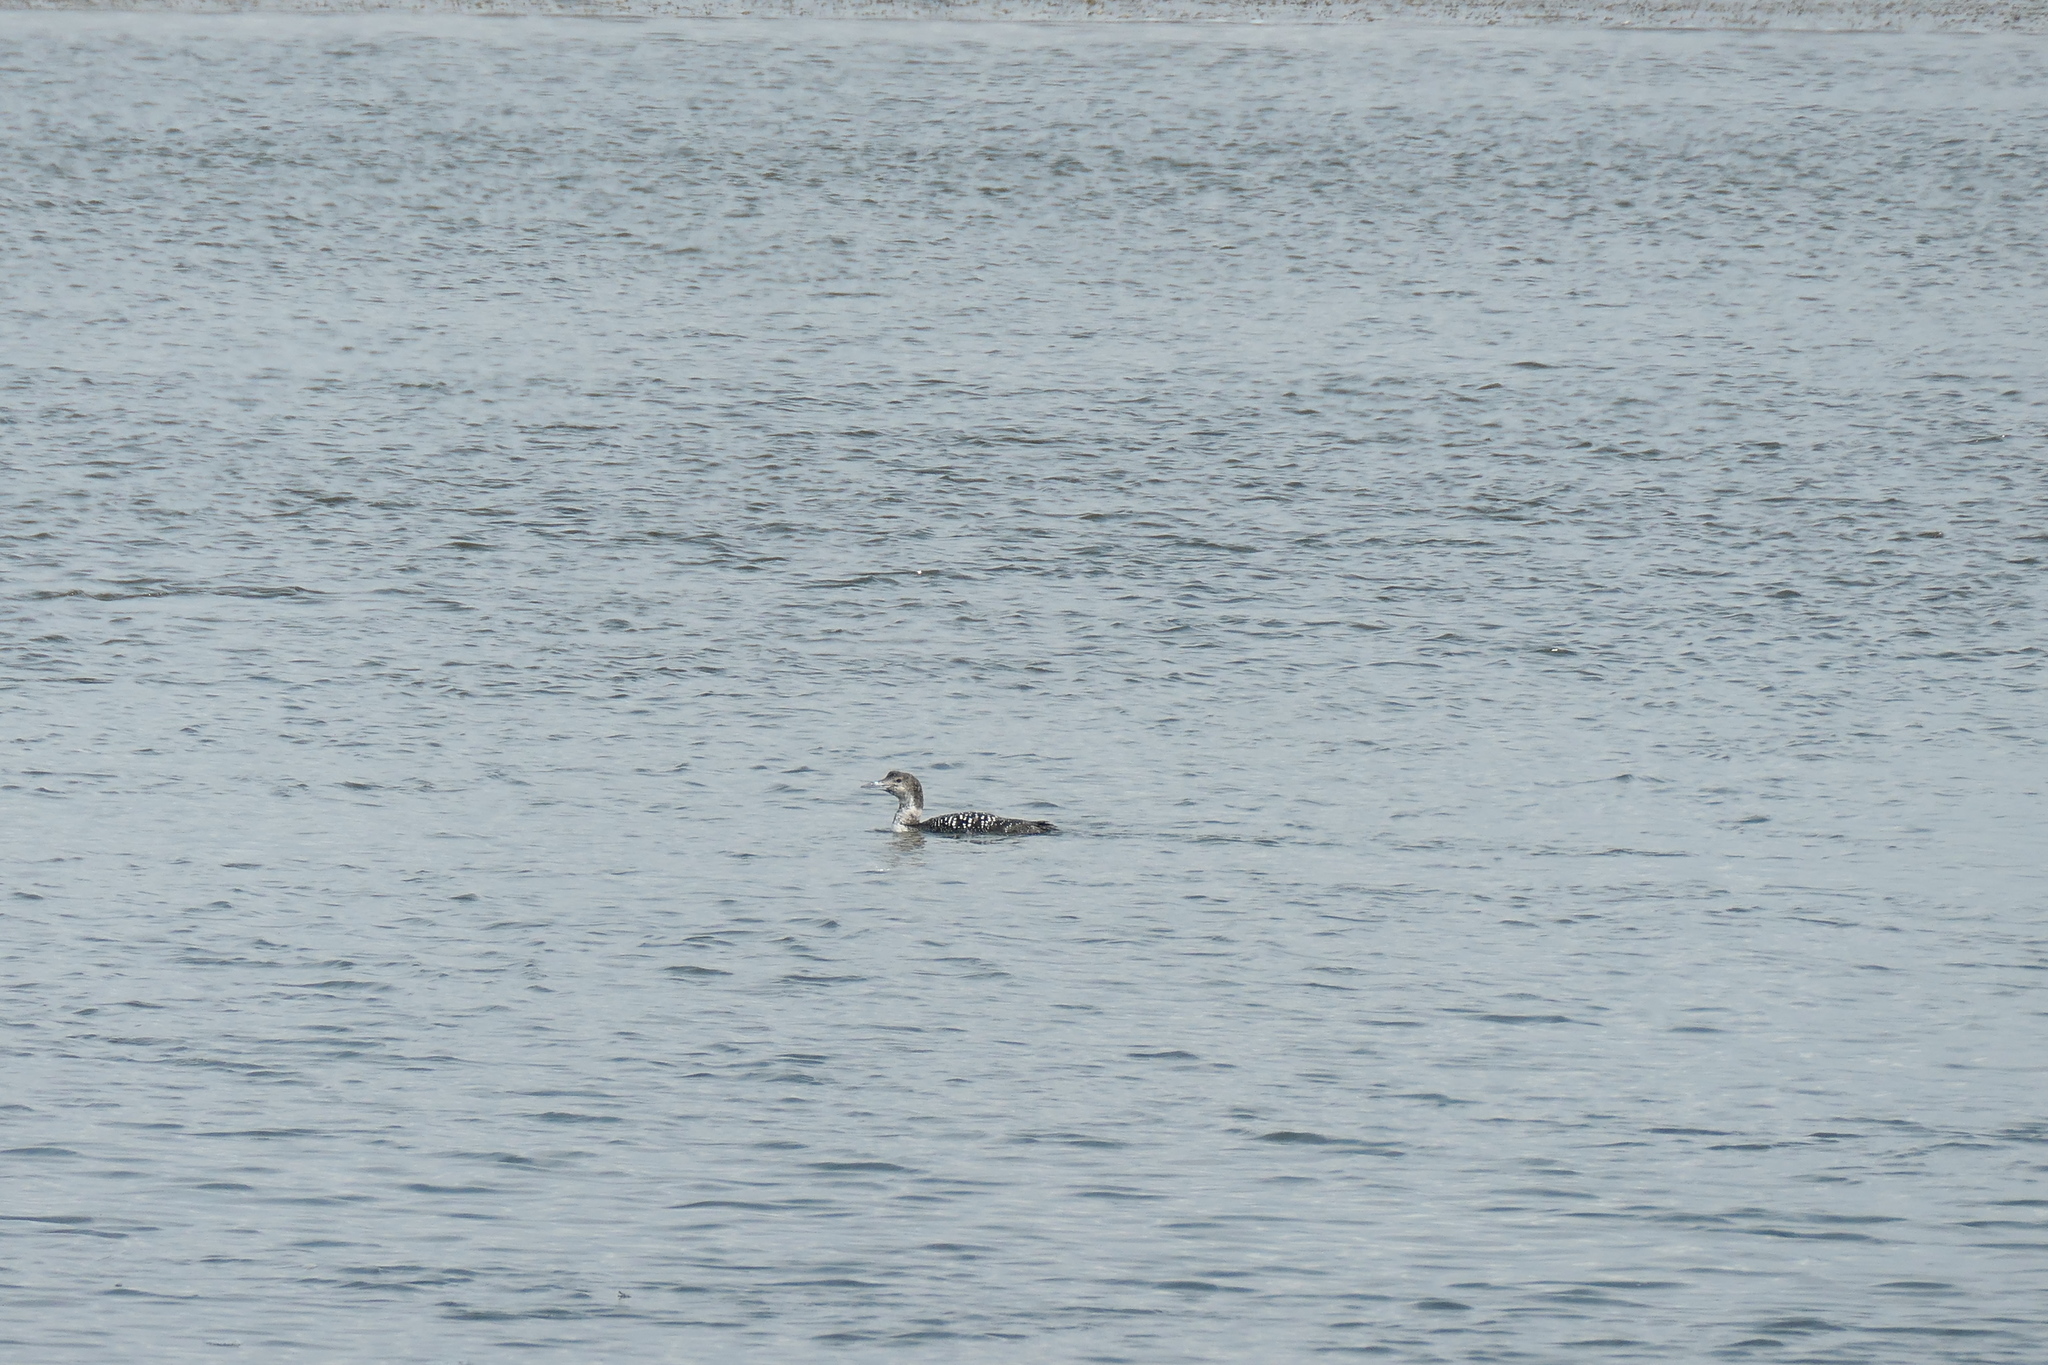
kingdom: Animalia
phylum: Chordata
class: Aves
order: Gaviiformes
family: Gaviidae
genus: Gavia
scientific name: Gavia immer
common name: Common loon
